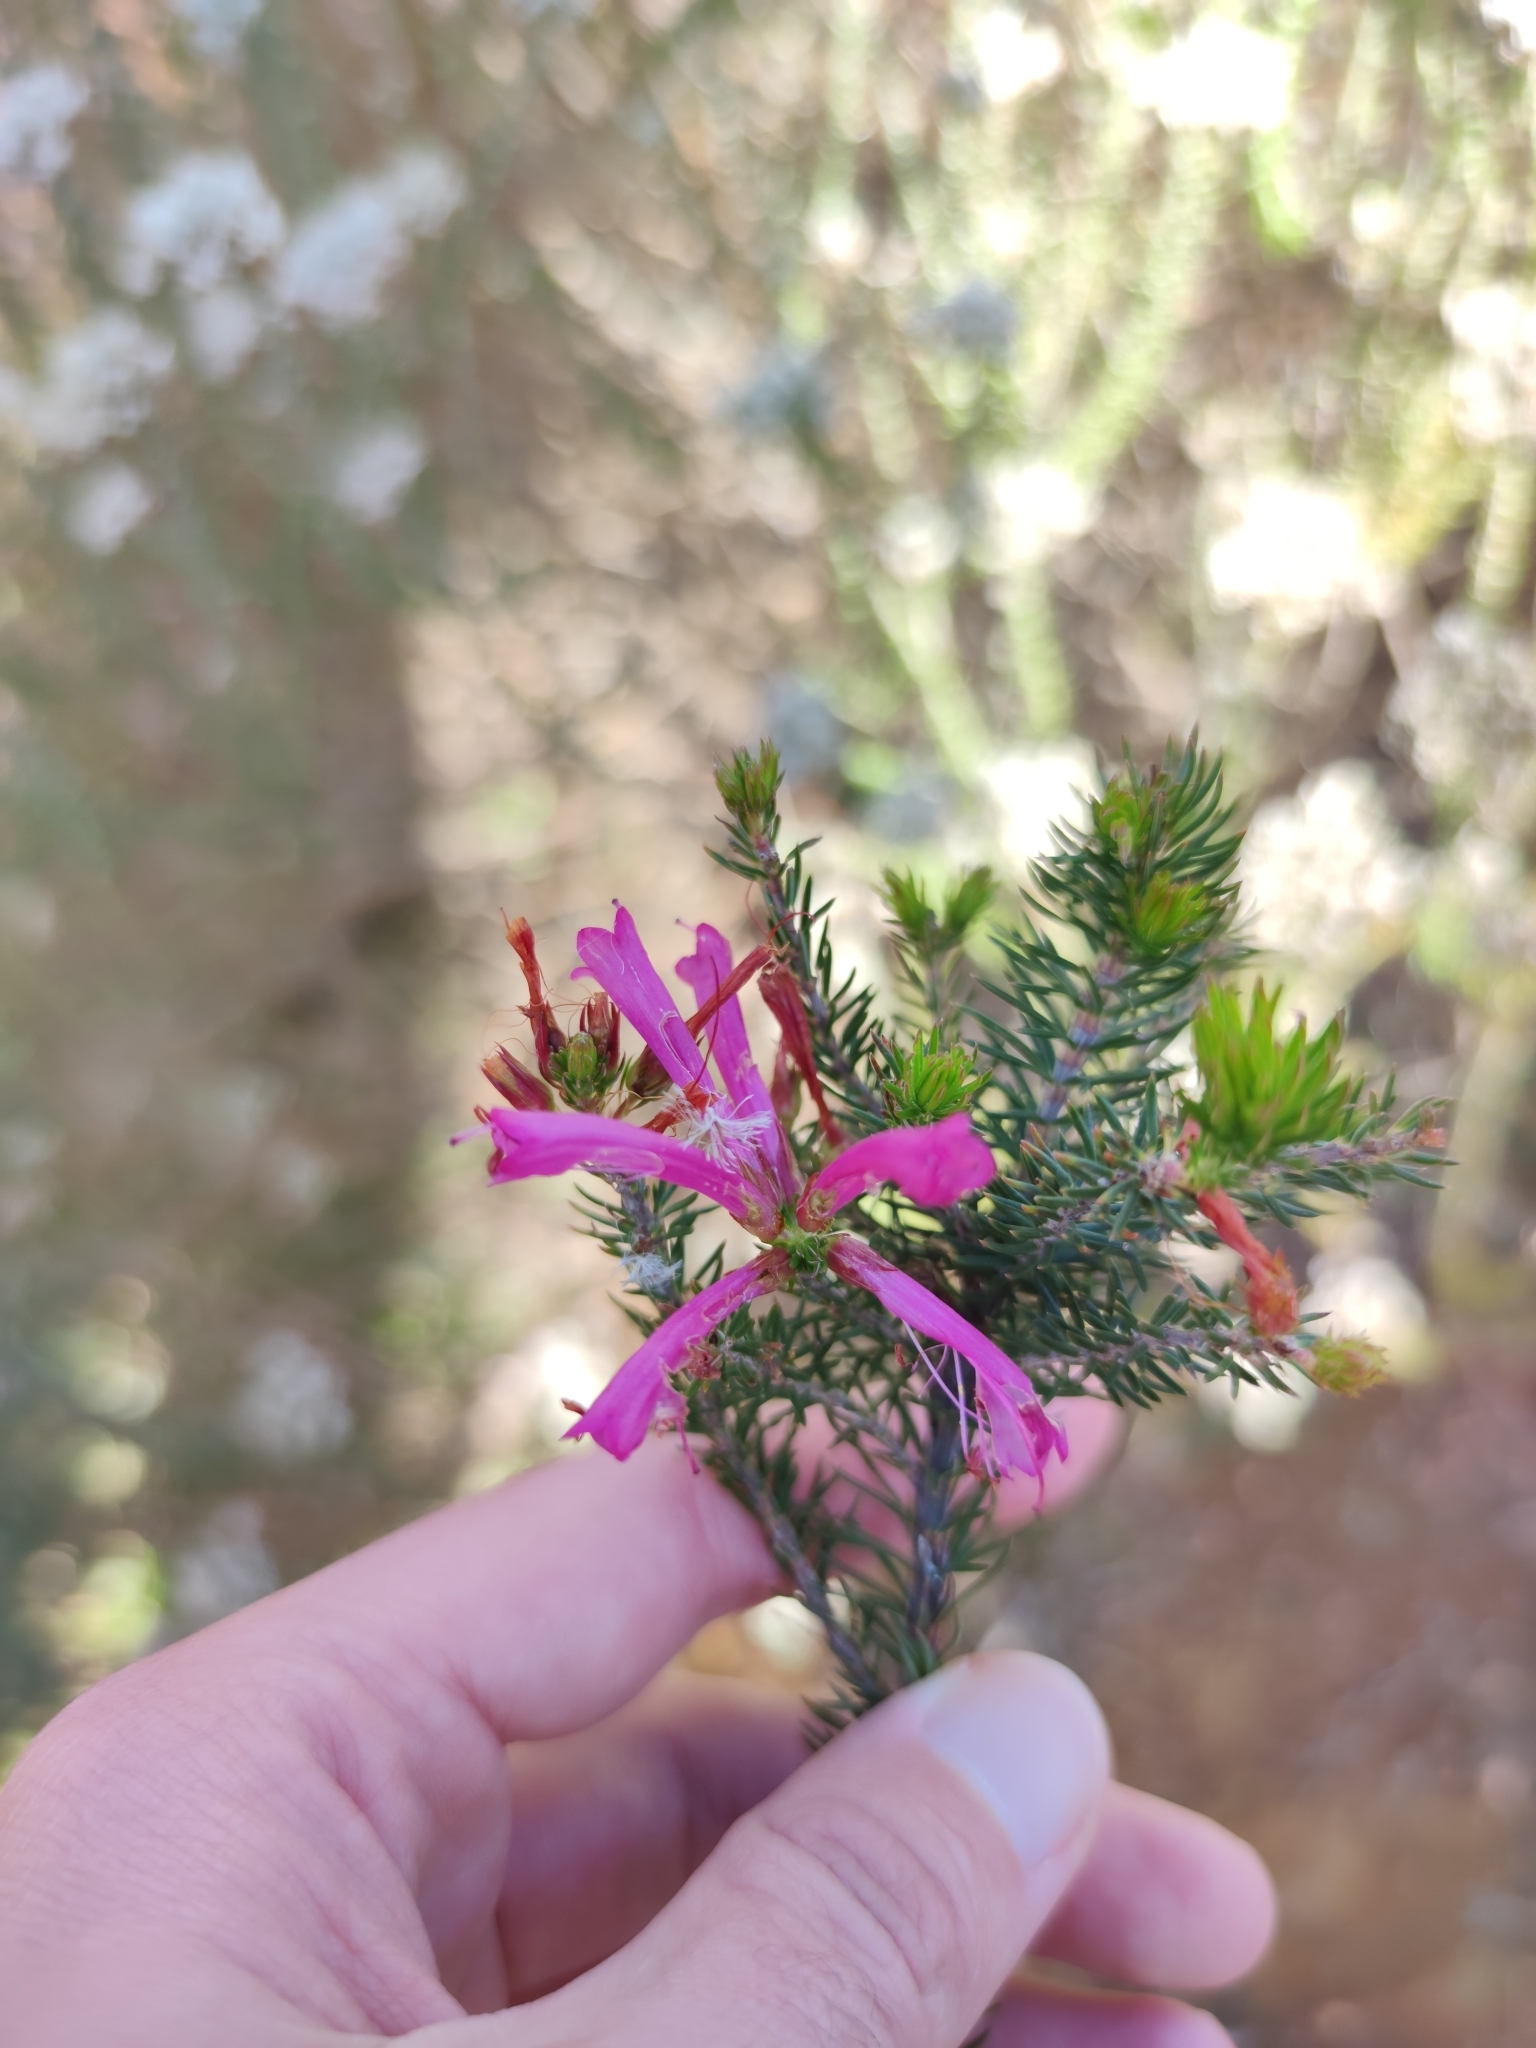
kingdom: Plantae
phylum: Tracheophyta
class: Magnoliopsida
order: Ericales
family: Ericaceae
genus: Erica
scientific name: Erica abietina
